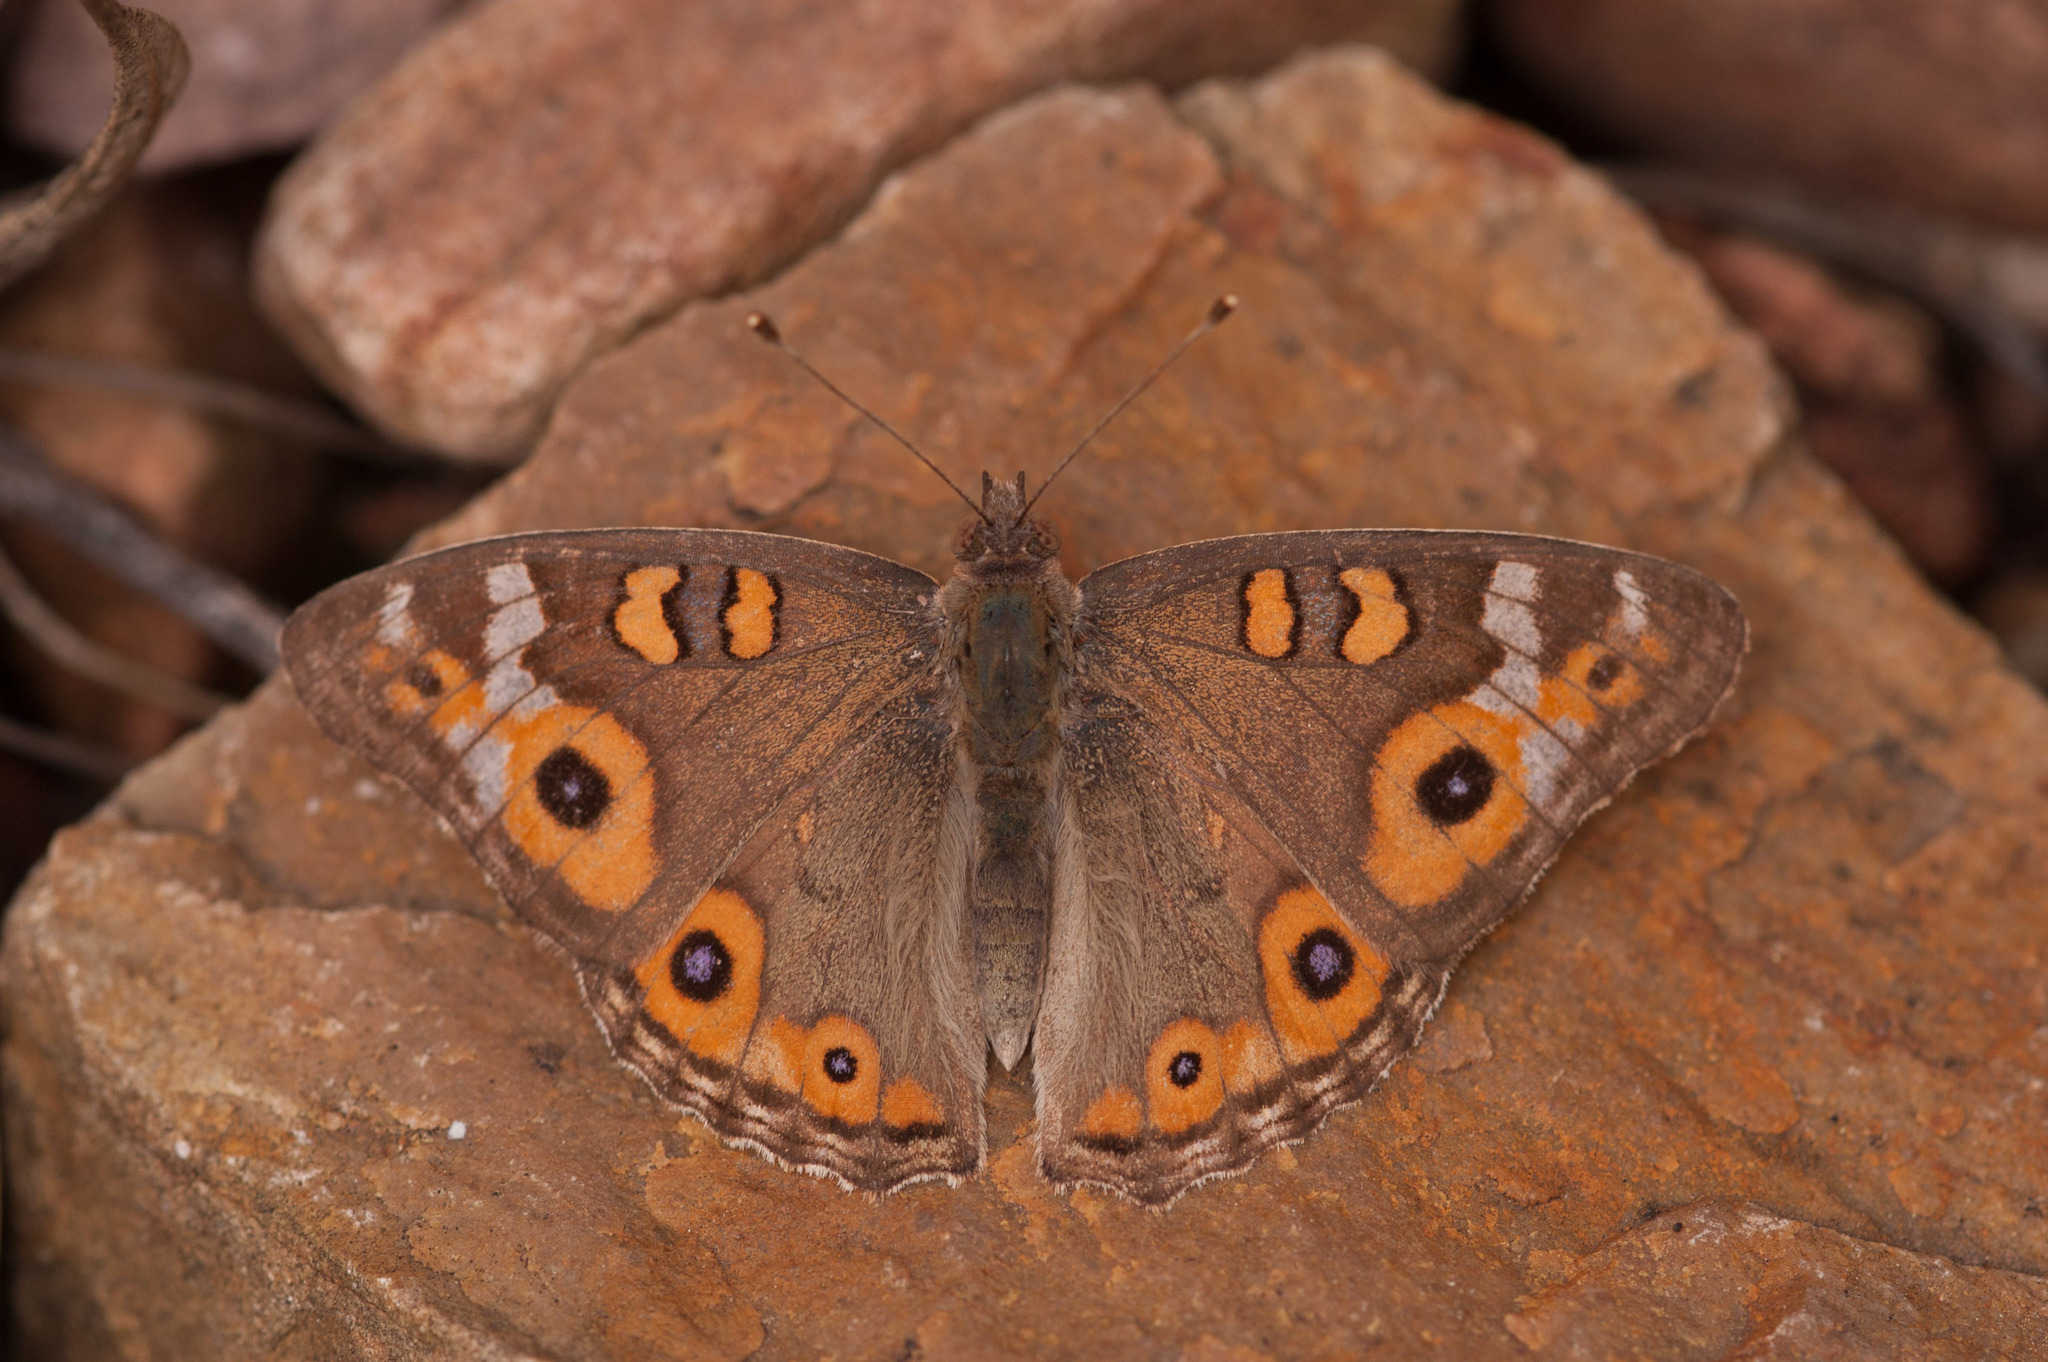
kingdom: Animalia
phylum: Arthropoda
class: Insecta
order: Lepidoptera
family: Nymphalidae
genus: Junonia
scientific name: Junonia villida
